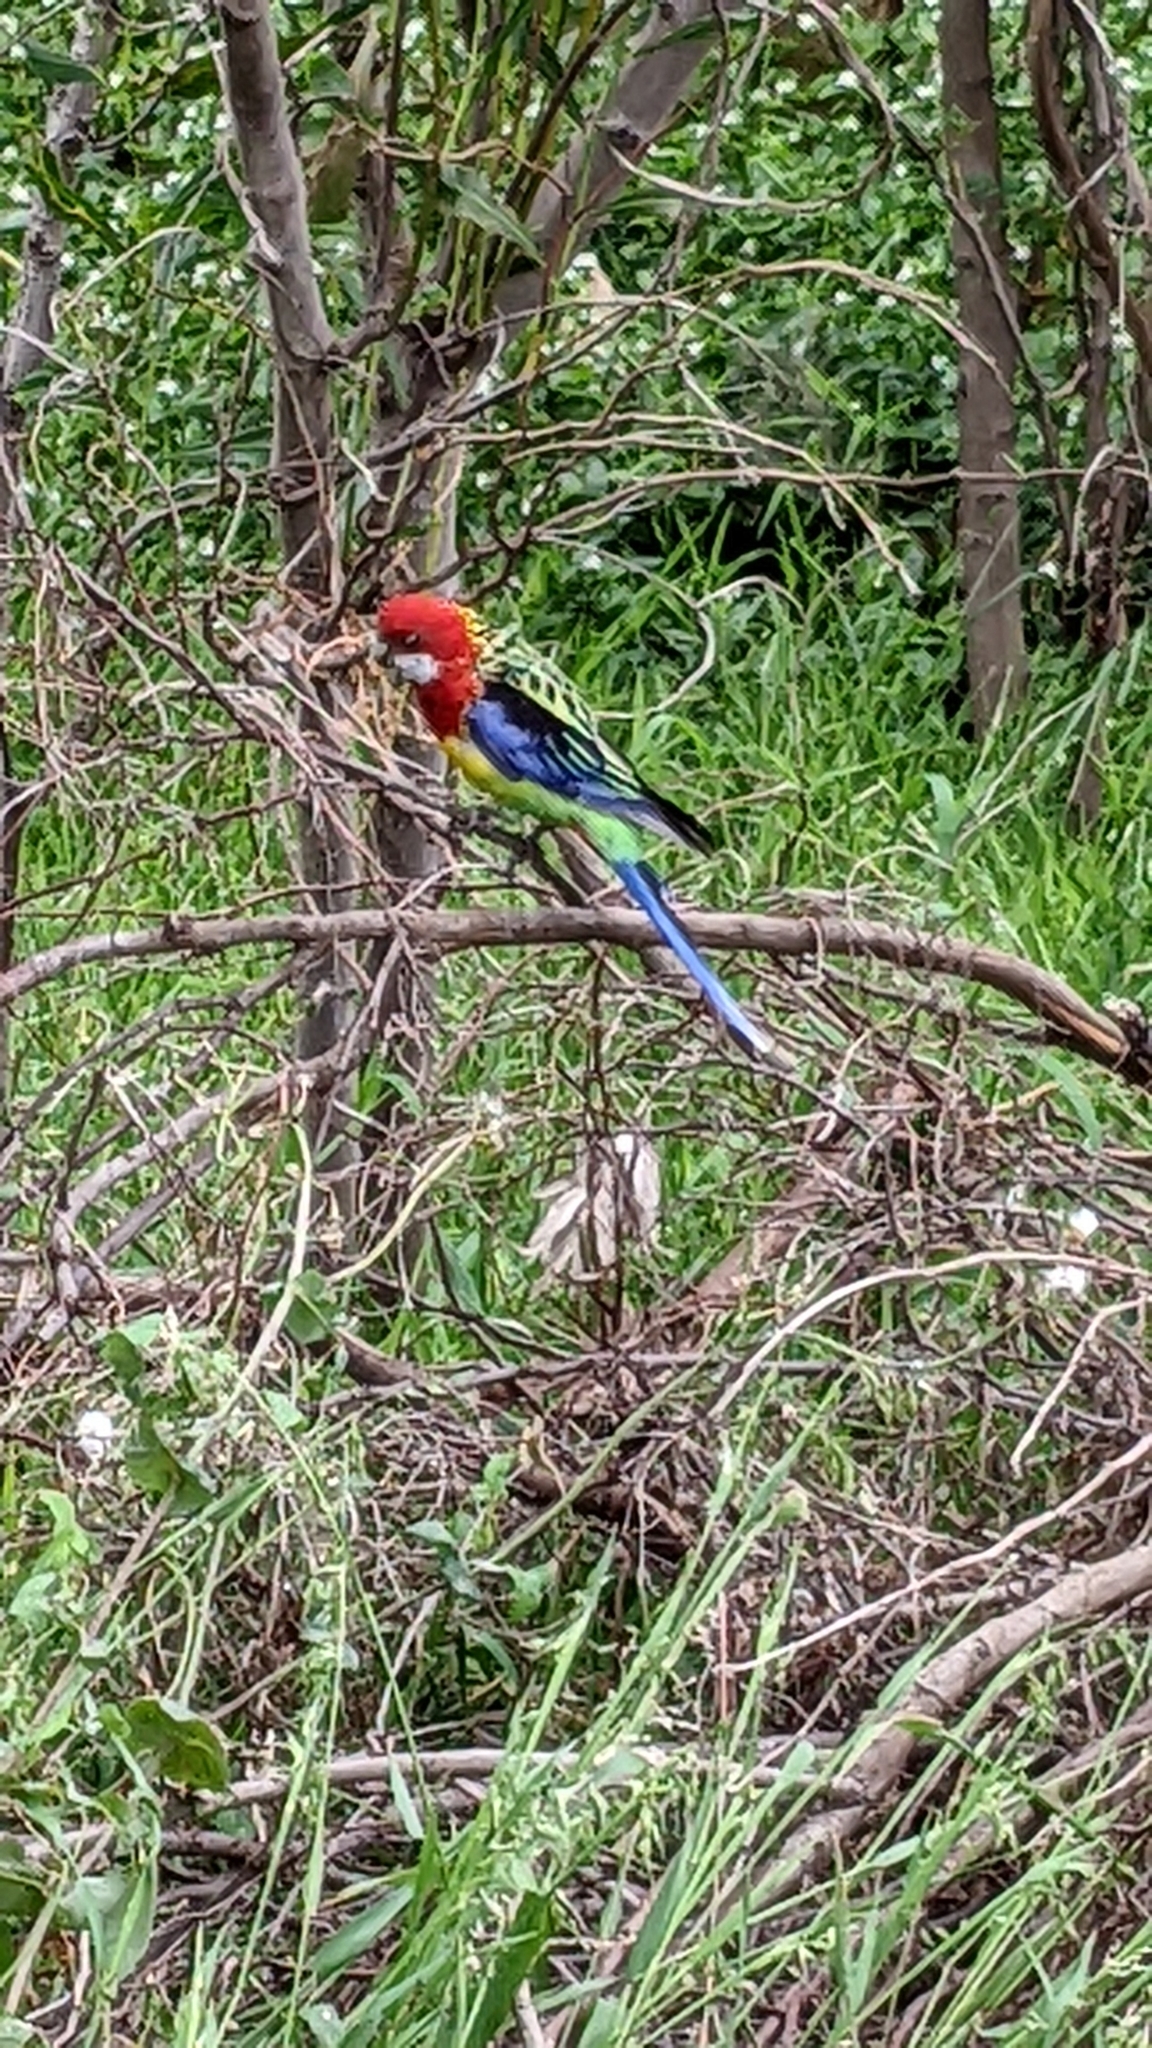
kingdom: Animalia
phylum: Chordata
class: Aves
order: Psittaciformes
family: Psittacidae
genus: Platycercus
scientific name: Platycercus eximius
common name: Eastern rosella
